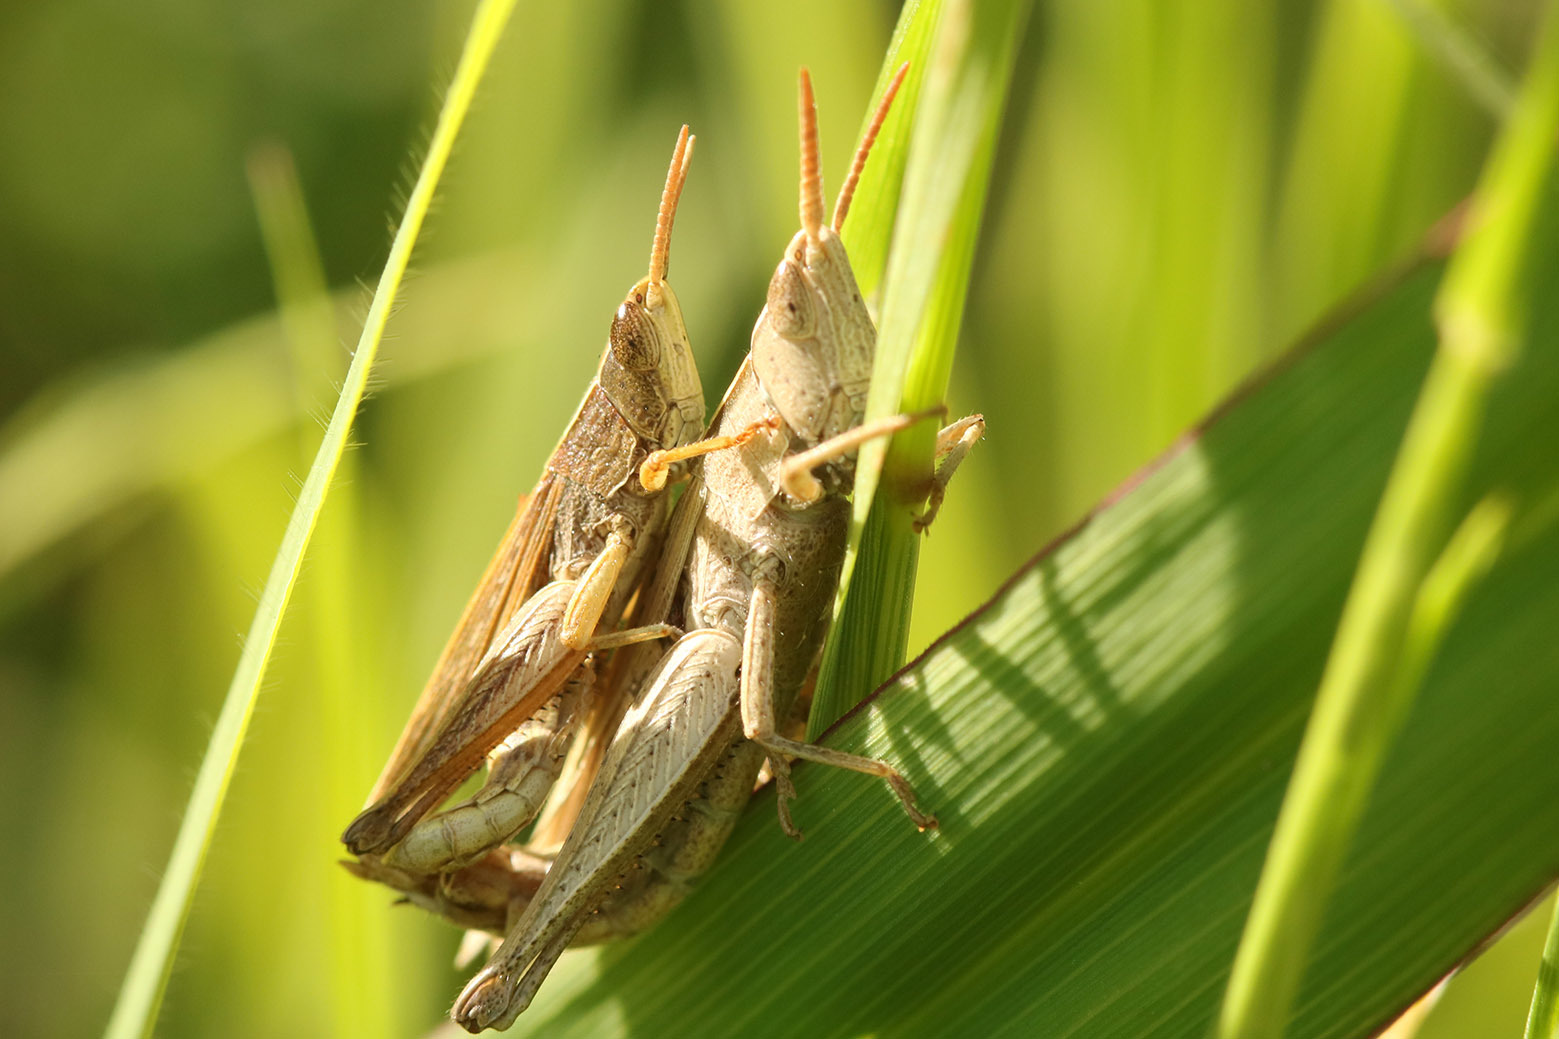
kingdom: Animalia
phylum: Arthropoda
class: Insecta
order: Orthoptera
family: Acrididae
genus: Laplatacris
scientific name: Laplatacris dispar
